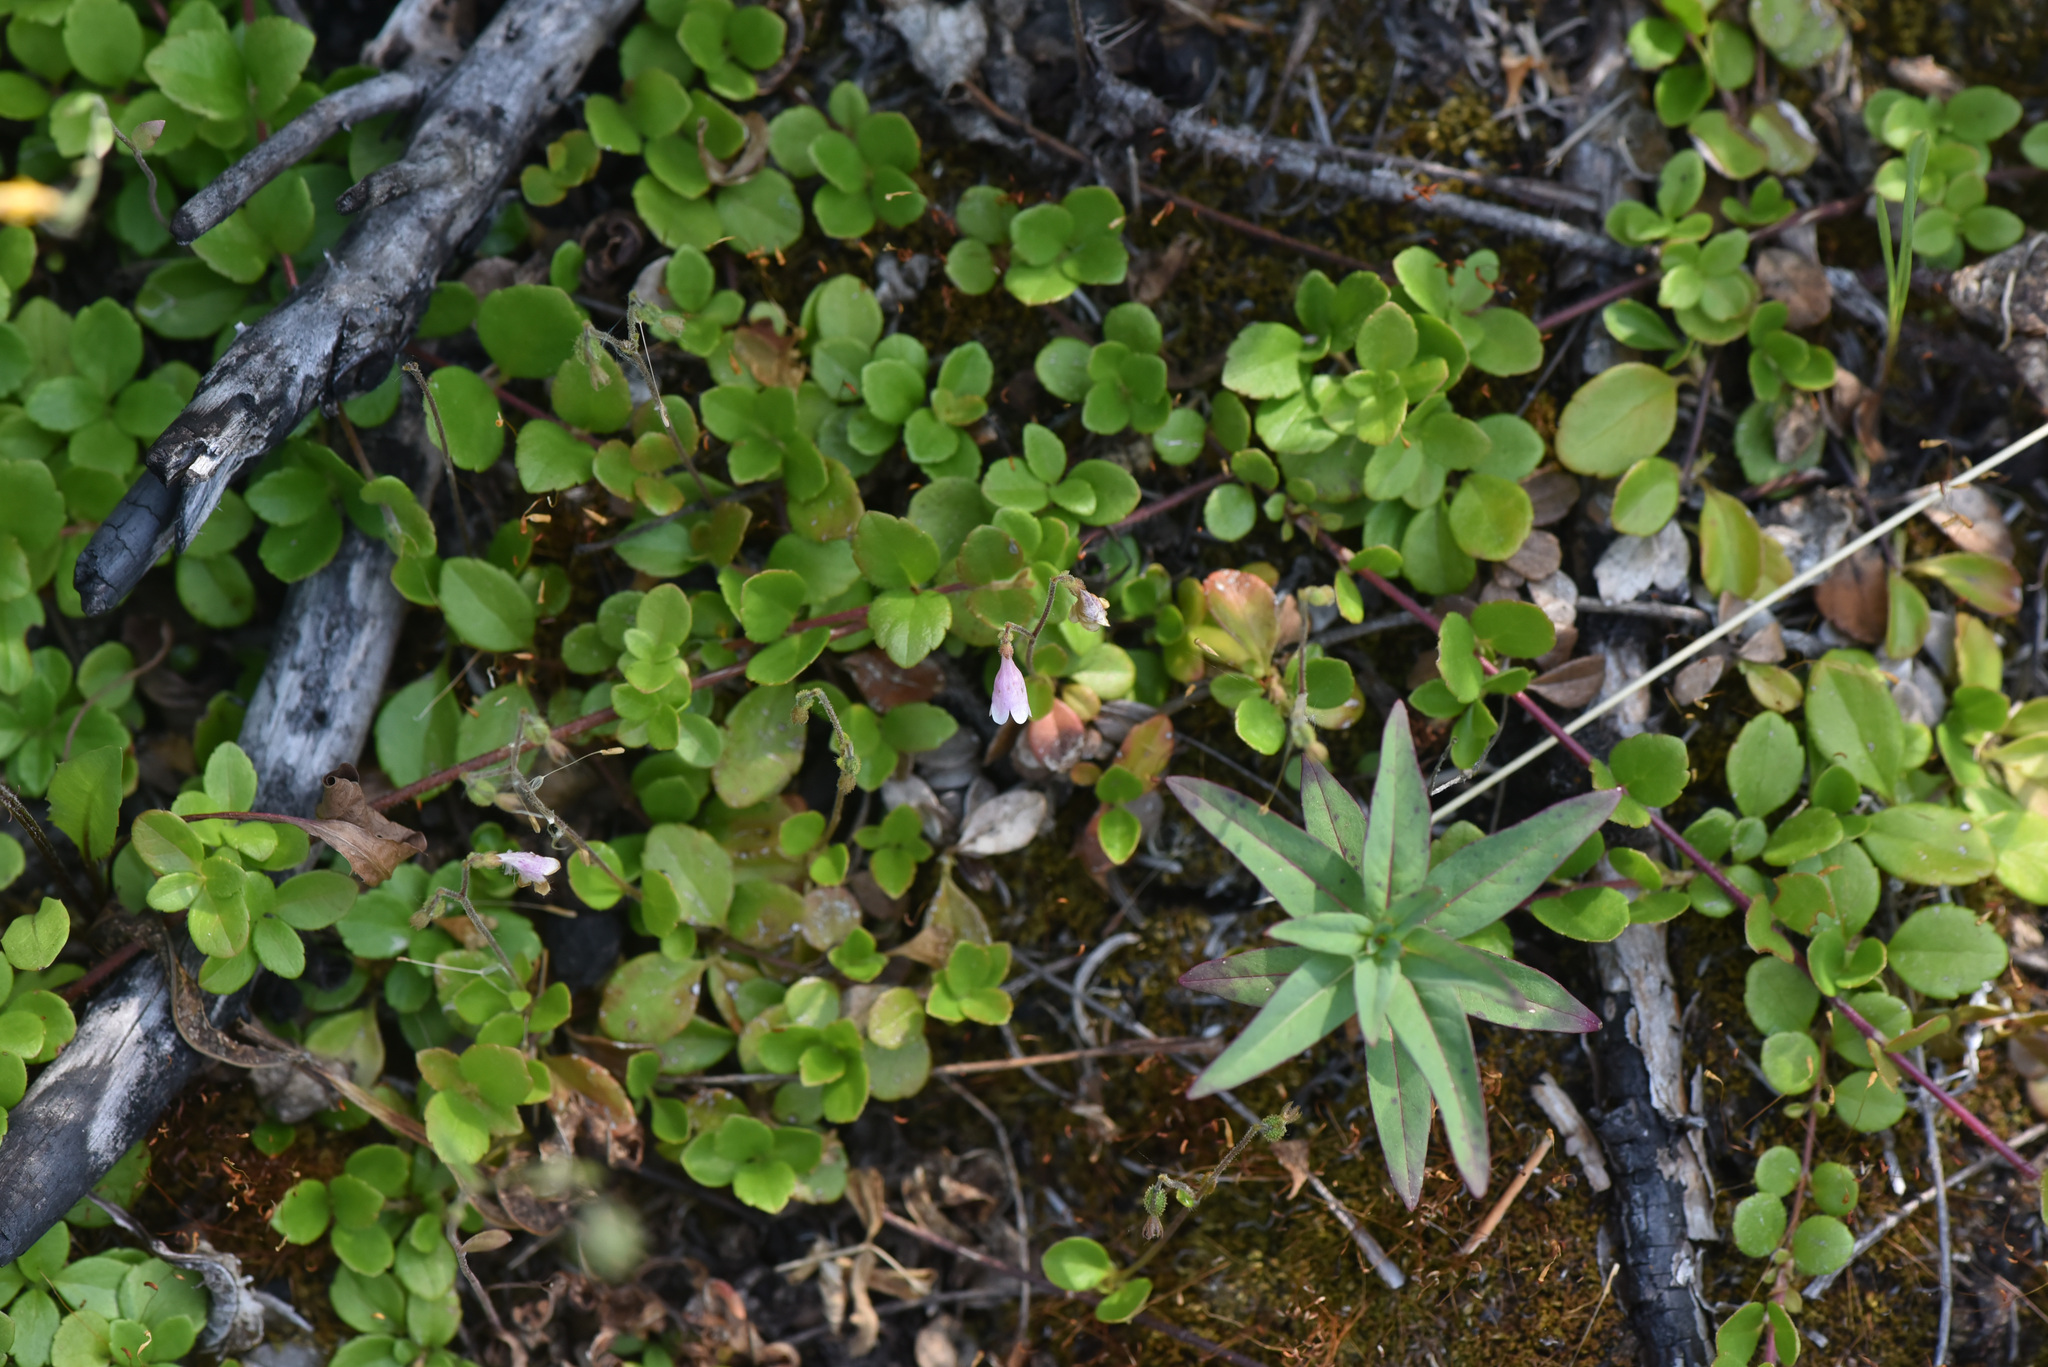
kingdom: Plantae
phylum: Tracheophyta
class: Magnoliopsida
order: Dipsacales
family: Caprifoliaceae
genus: Linnaea
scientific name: Linnaea borealis
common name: Twinflower
